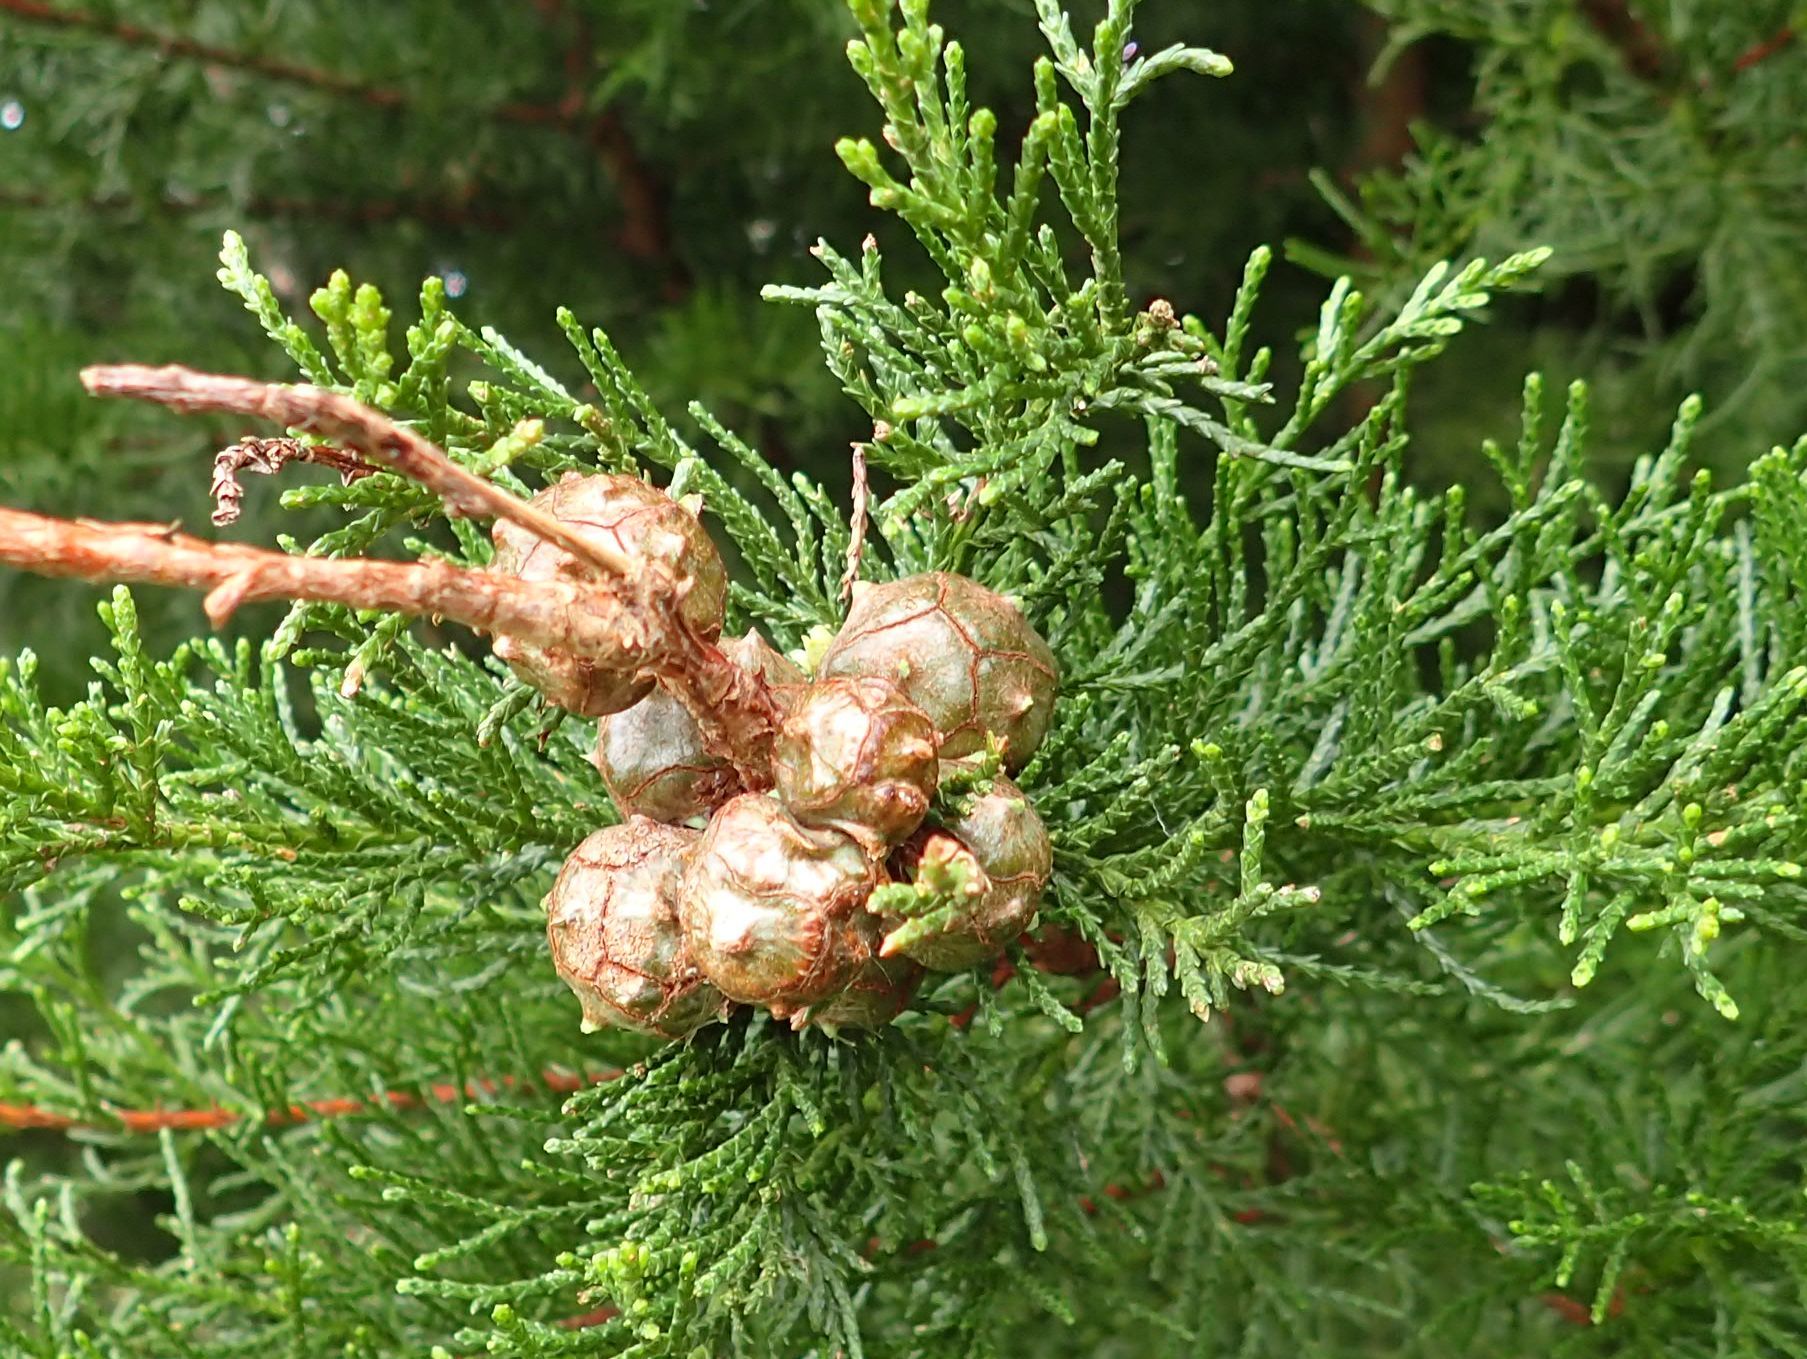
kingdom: Plantae
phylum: Tracheophyta
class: Pinopsida
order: Pinales
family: Cupressaceae
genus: Cupressus
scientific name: Cupressus macrocarpa
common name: Monterey cypress
